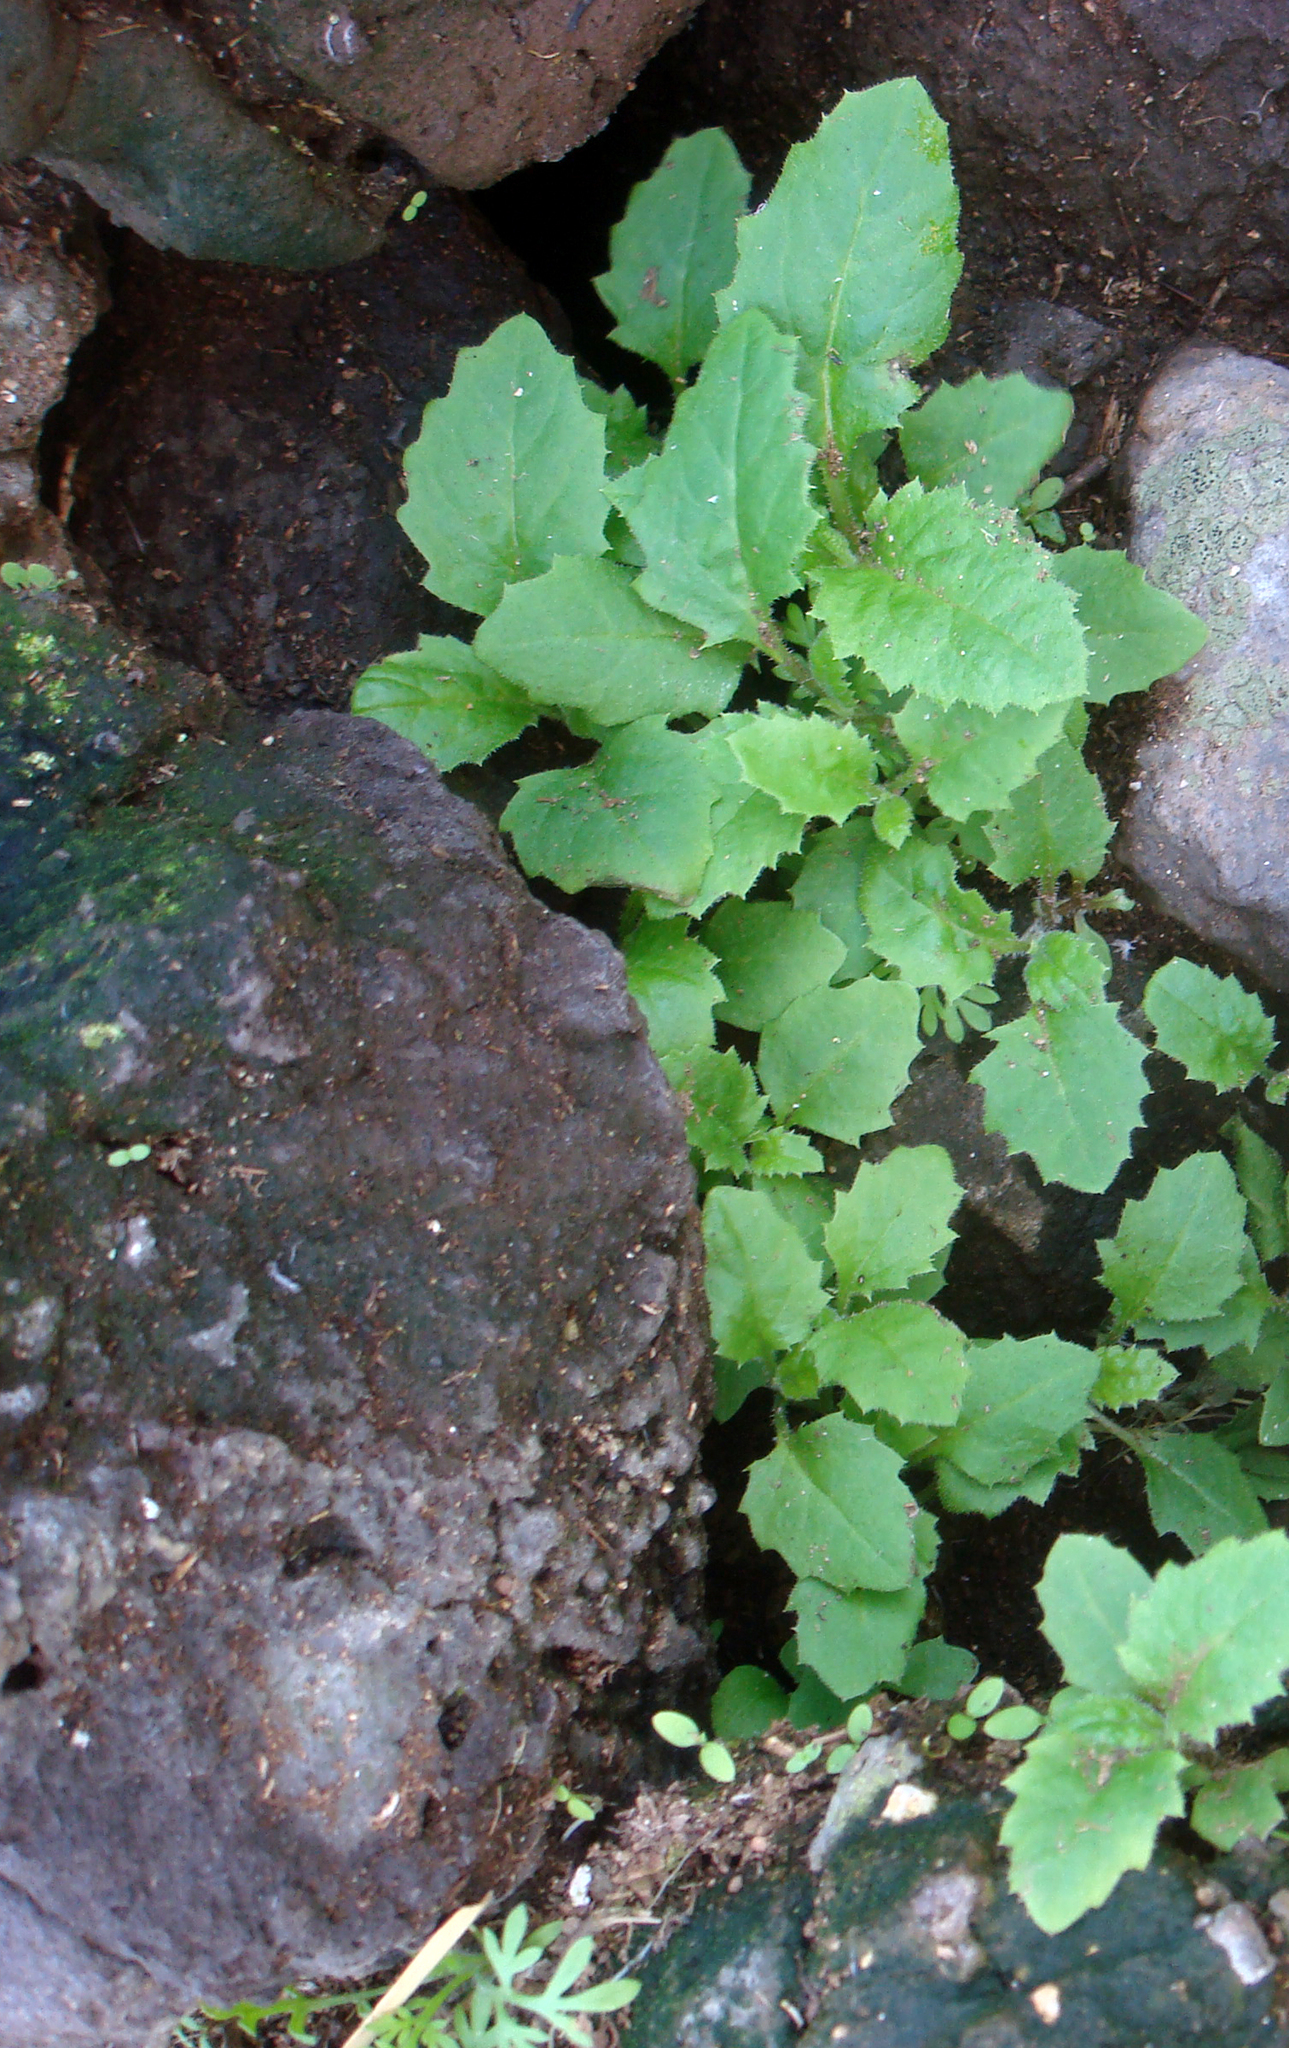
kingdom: Plantae
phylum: Tracheophyta
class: Magnoliopsida
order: Asterales
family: Asteraceae
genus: Senecio
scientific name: Senecio kermadecensis
